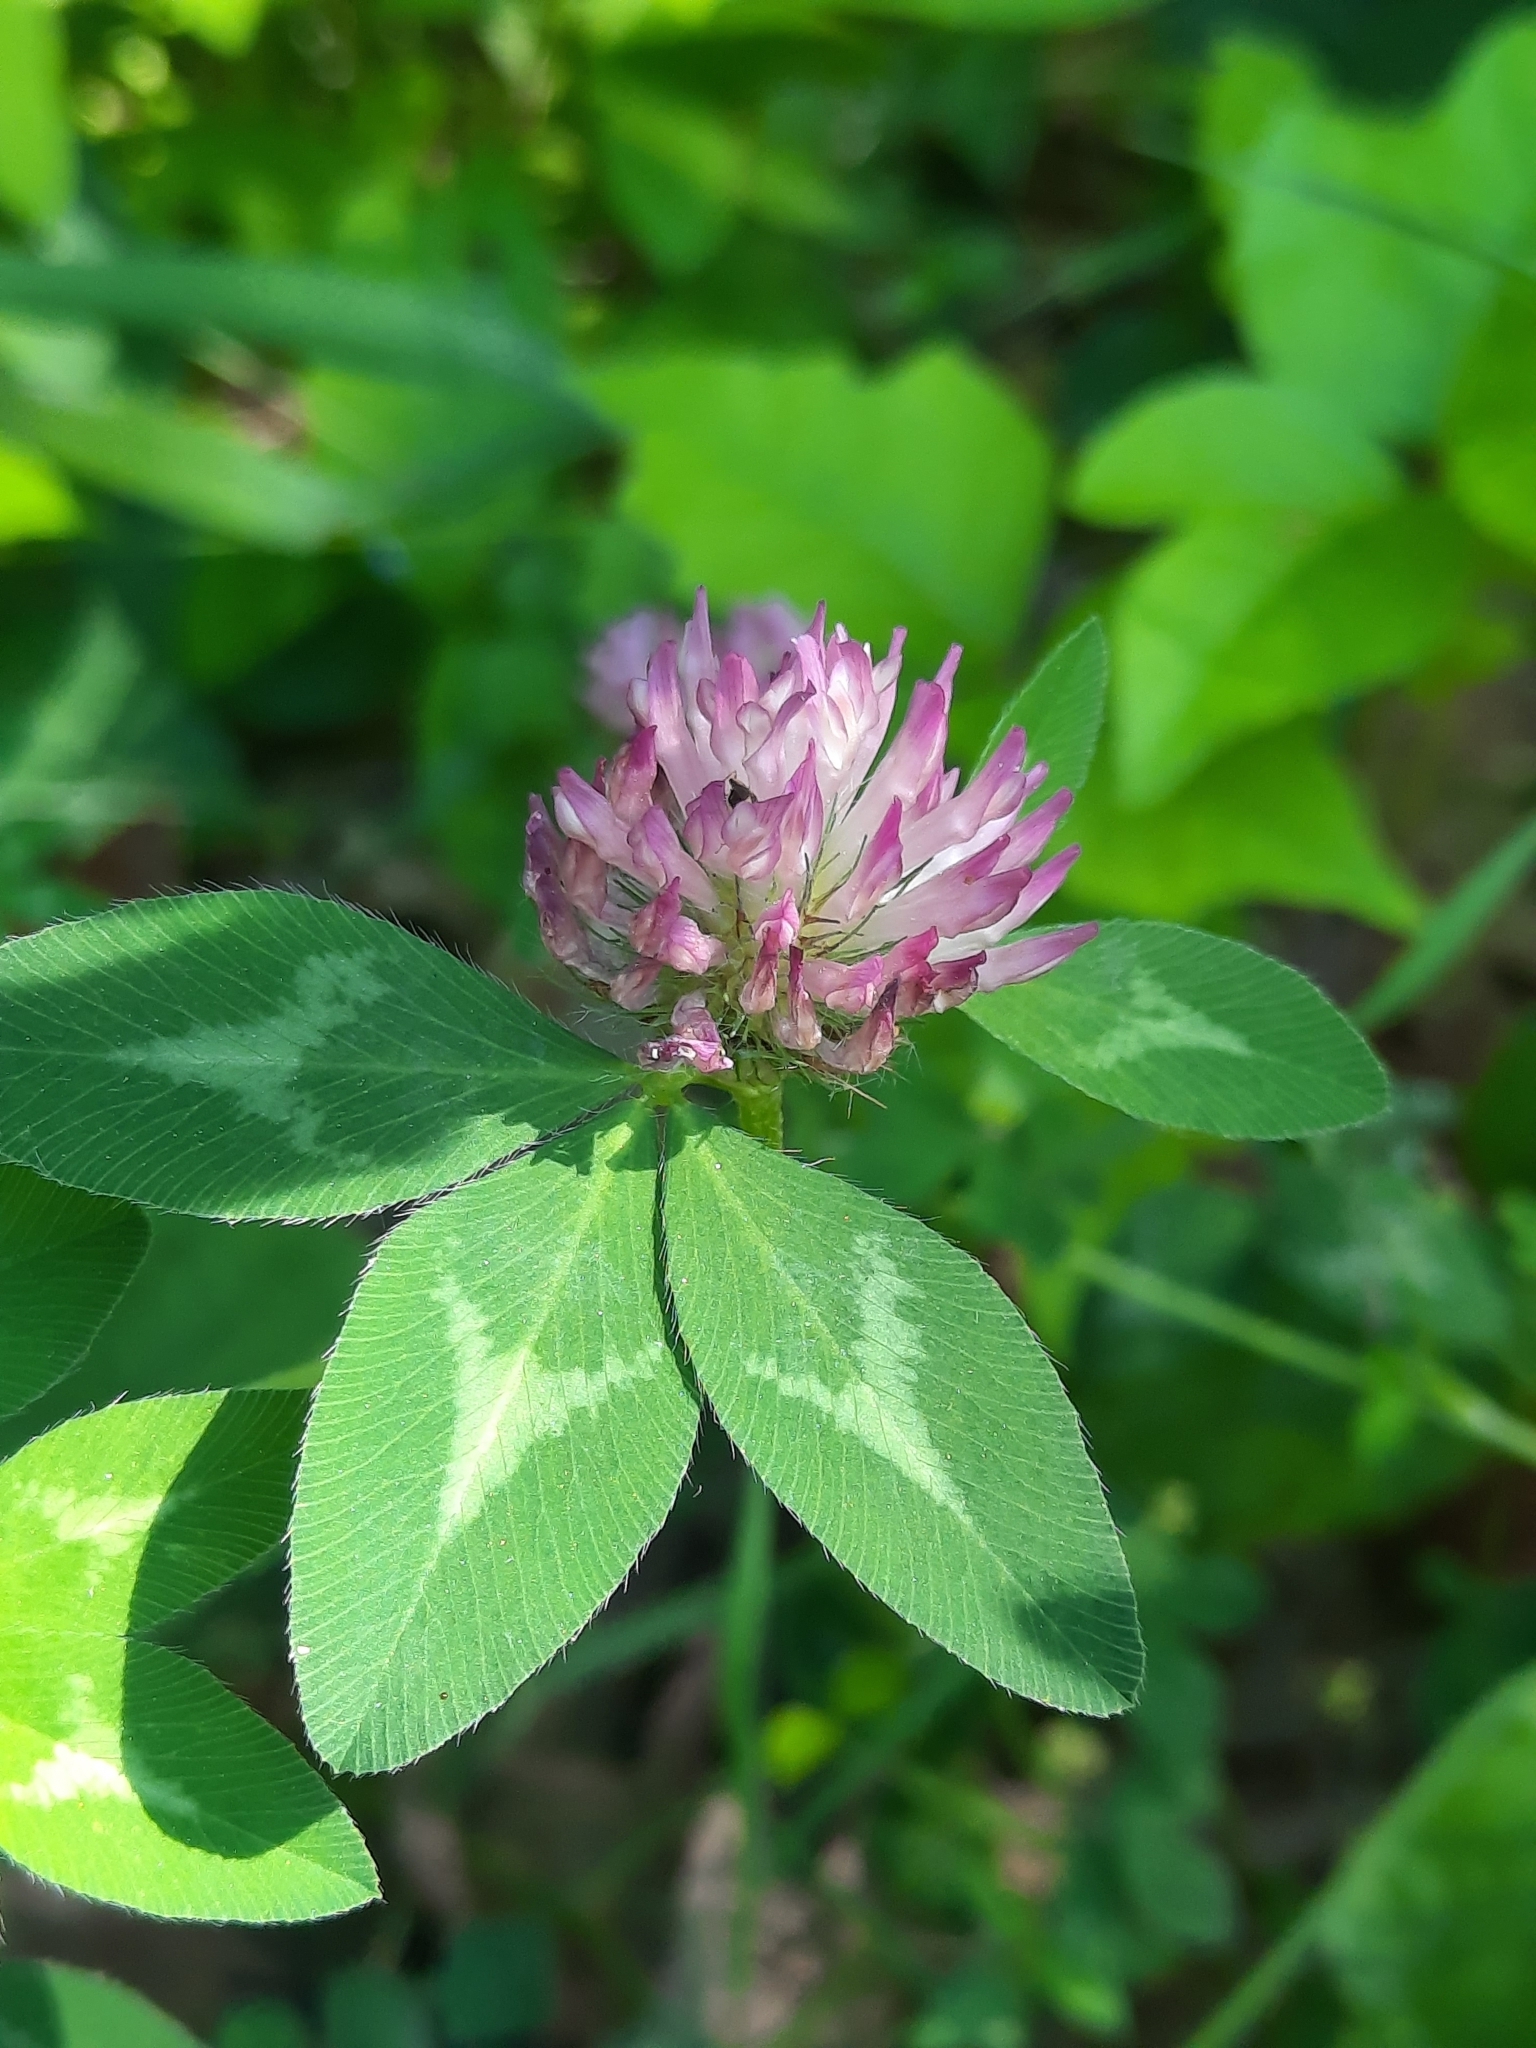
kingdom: Plantae
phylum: Tracheophyta
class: Magnoliopsida
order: Fabales
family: Fabaceae
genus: Trifolium
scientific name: Trifolium pratense
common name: Red clover
